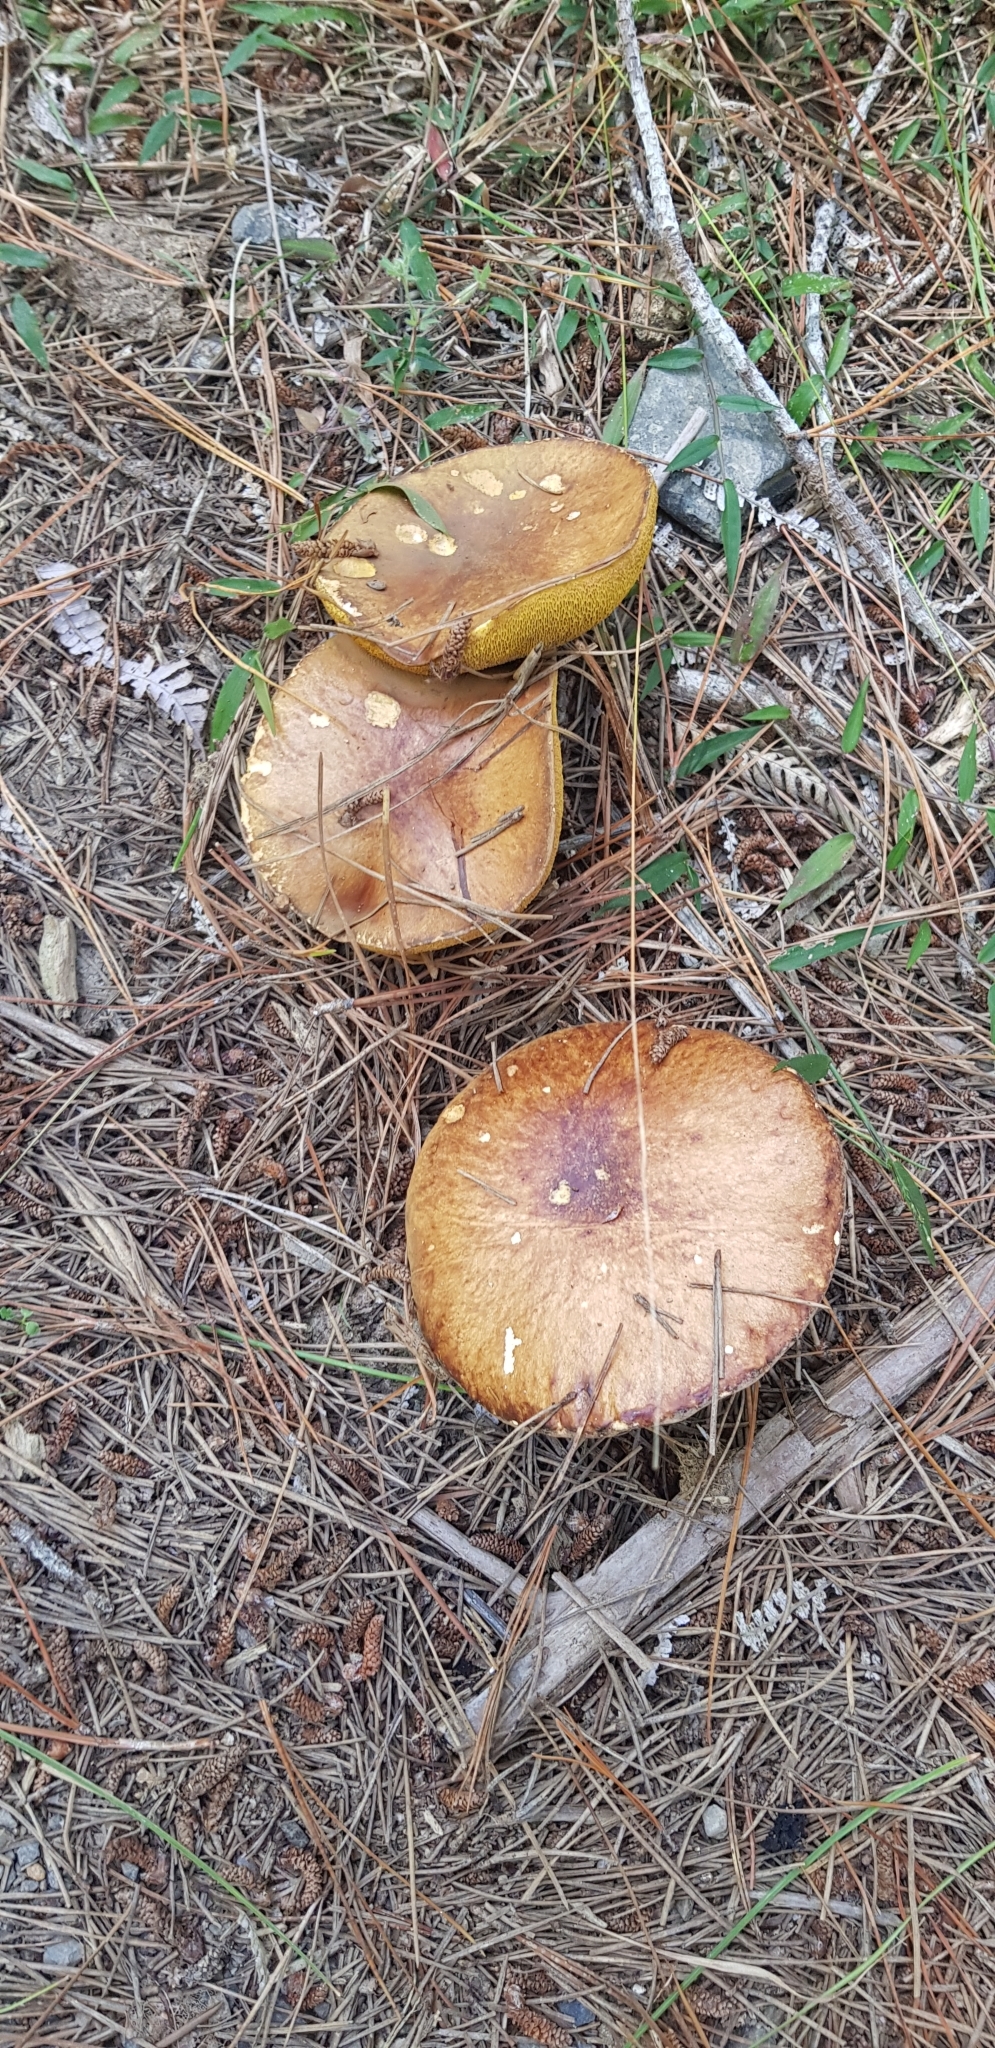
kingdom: Fungi
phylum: Basidiomycota
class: Agaricomycetes
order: Boletales
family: Suillaceae
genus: Suillus
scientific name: Suillus granulatus
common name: Weeping bolete
